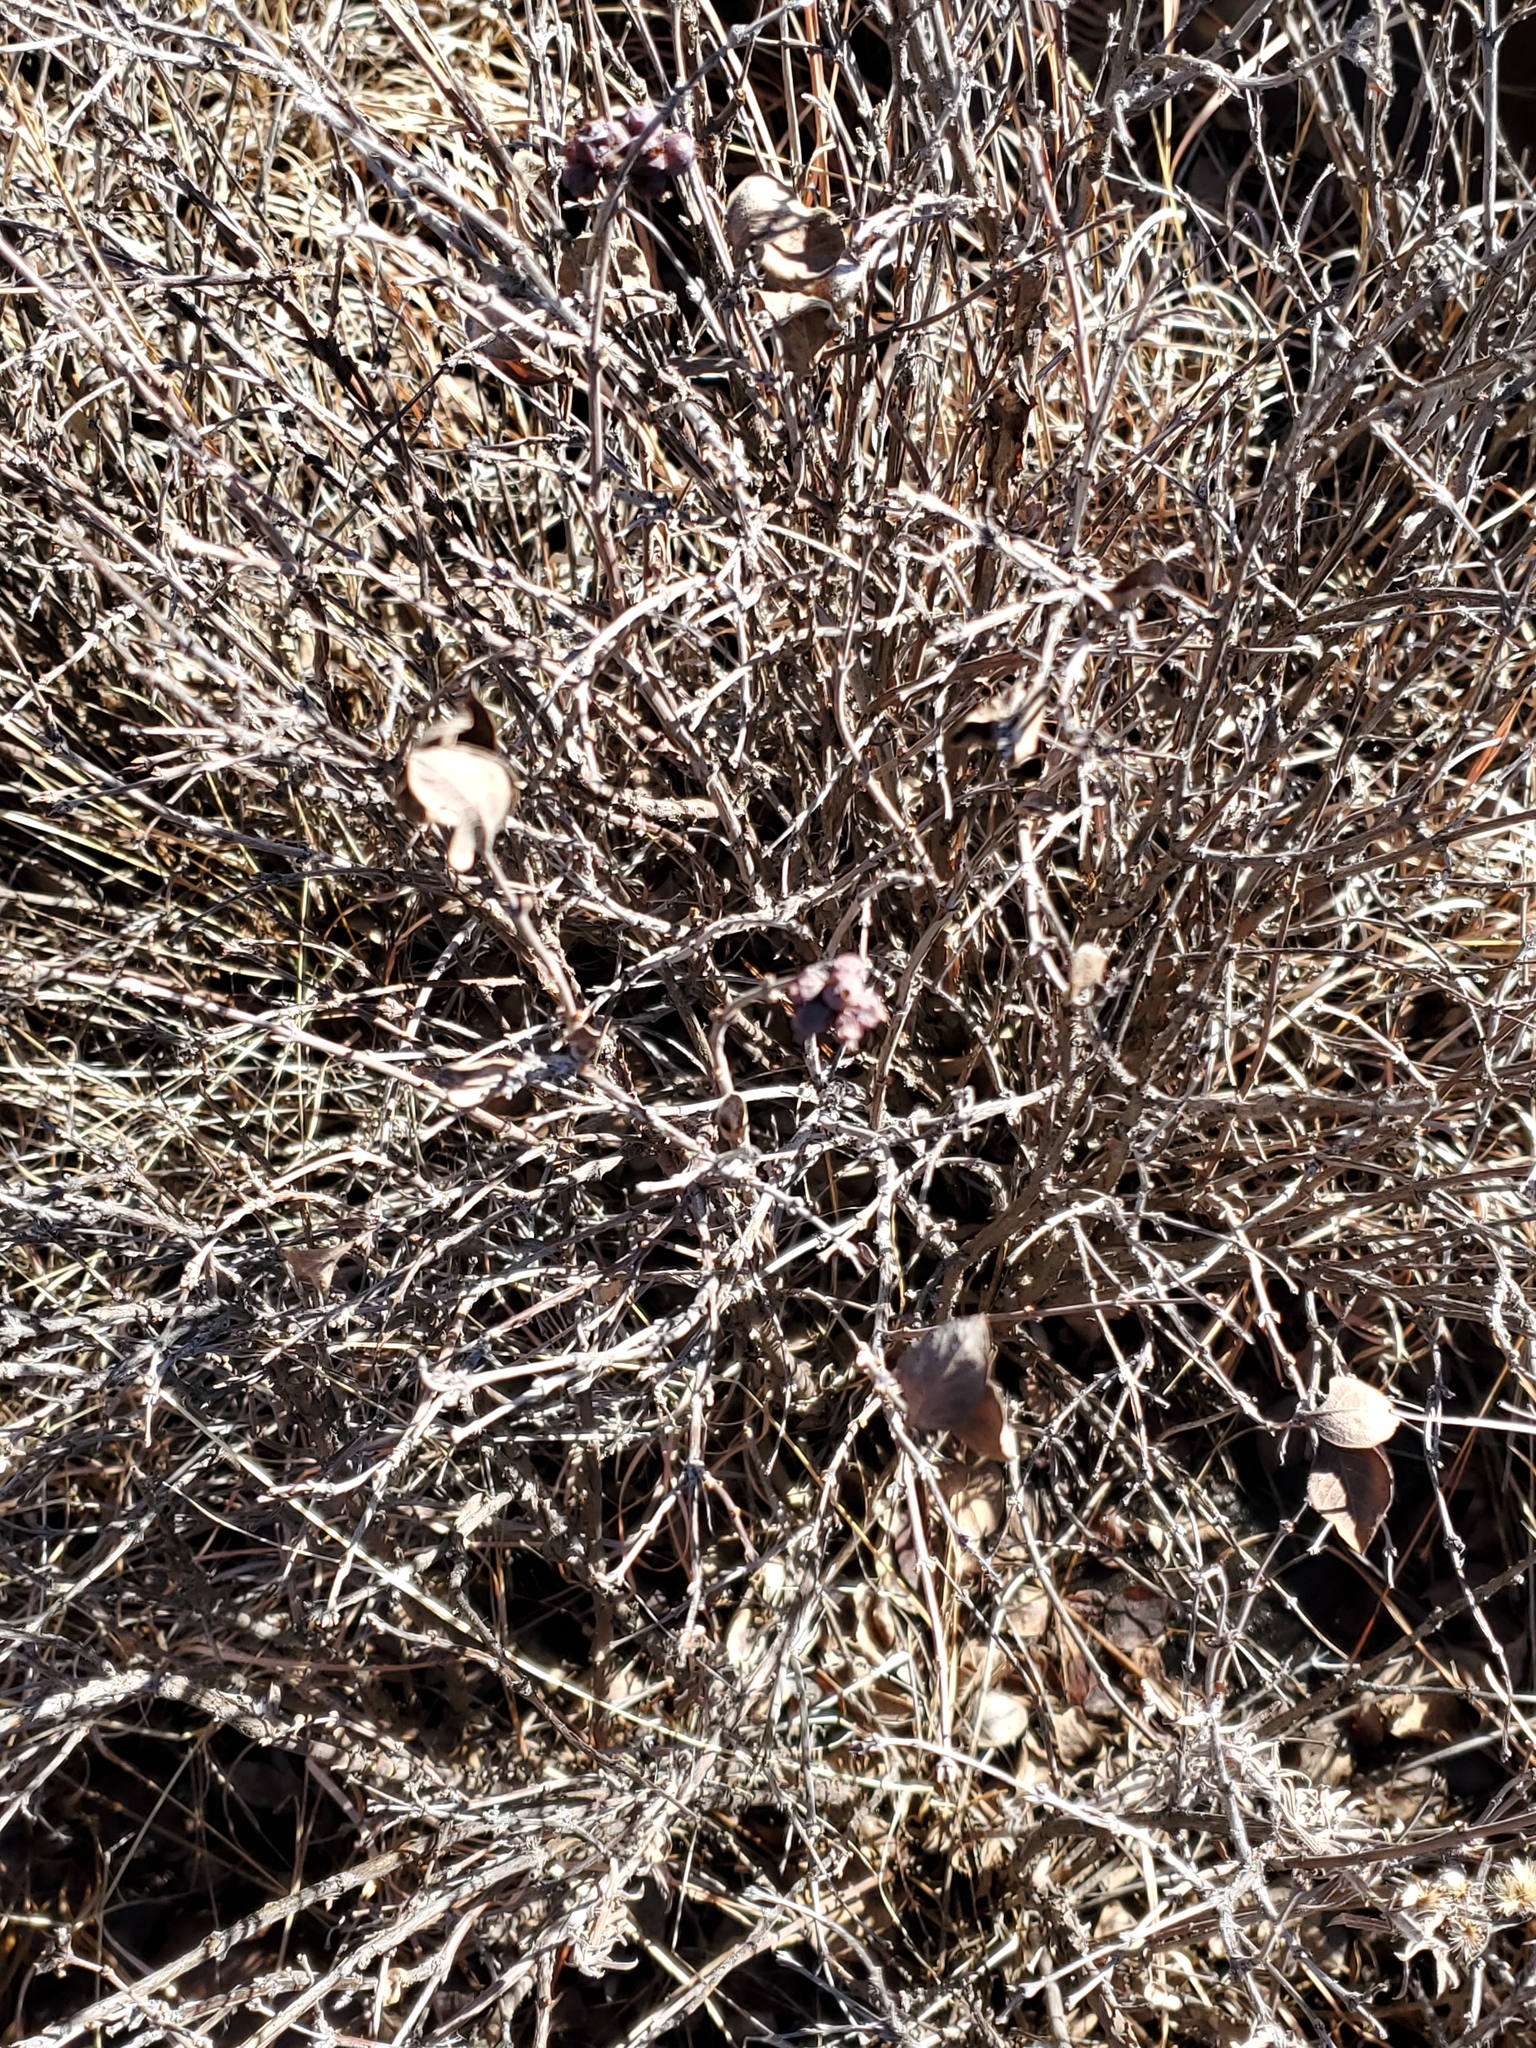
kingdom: Plantae
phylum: Tracheophyta
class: Magnoliopsida
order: Dipsacales
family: Caprifoliaceae
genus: Symphoricarpos
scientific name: Symphoricarpos occidentalis
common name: Wolfberry
